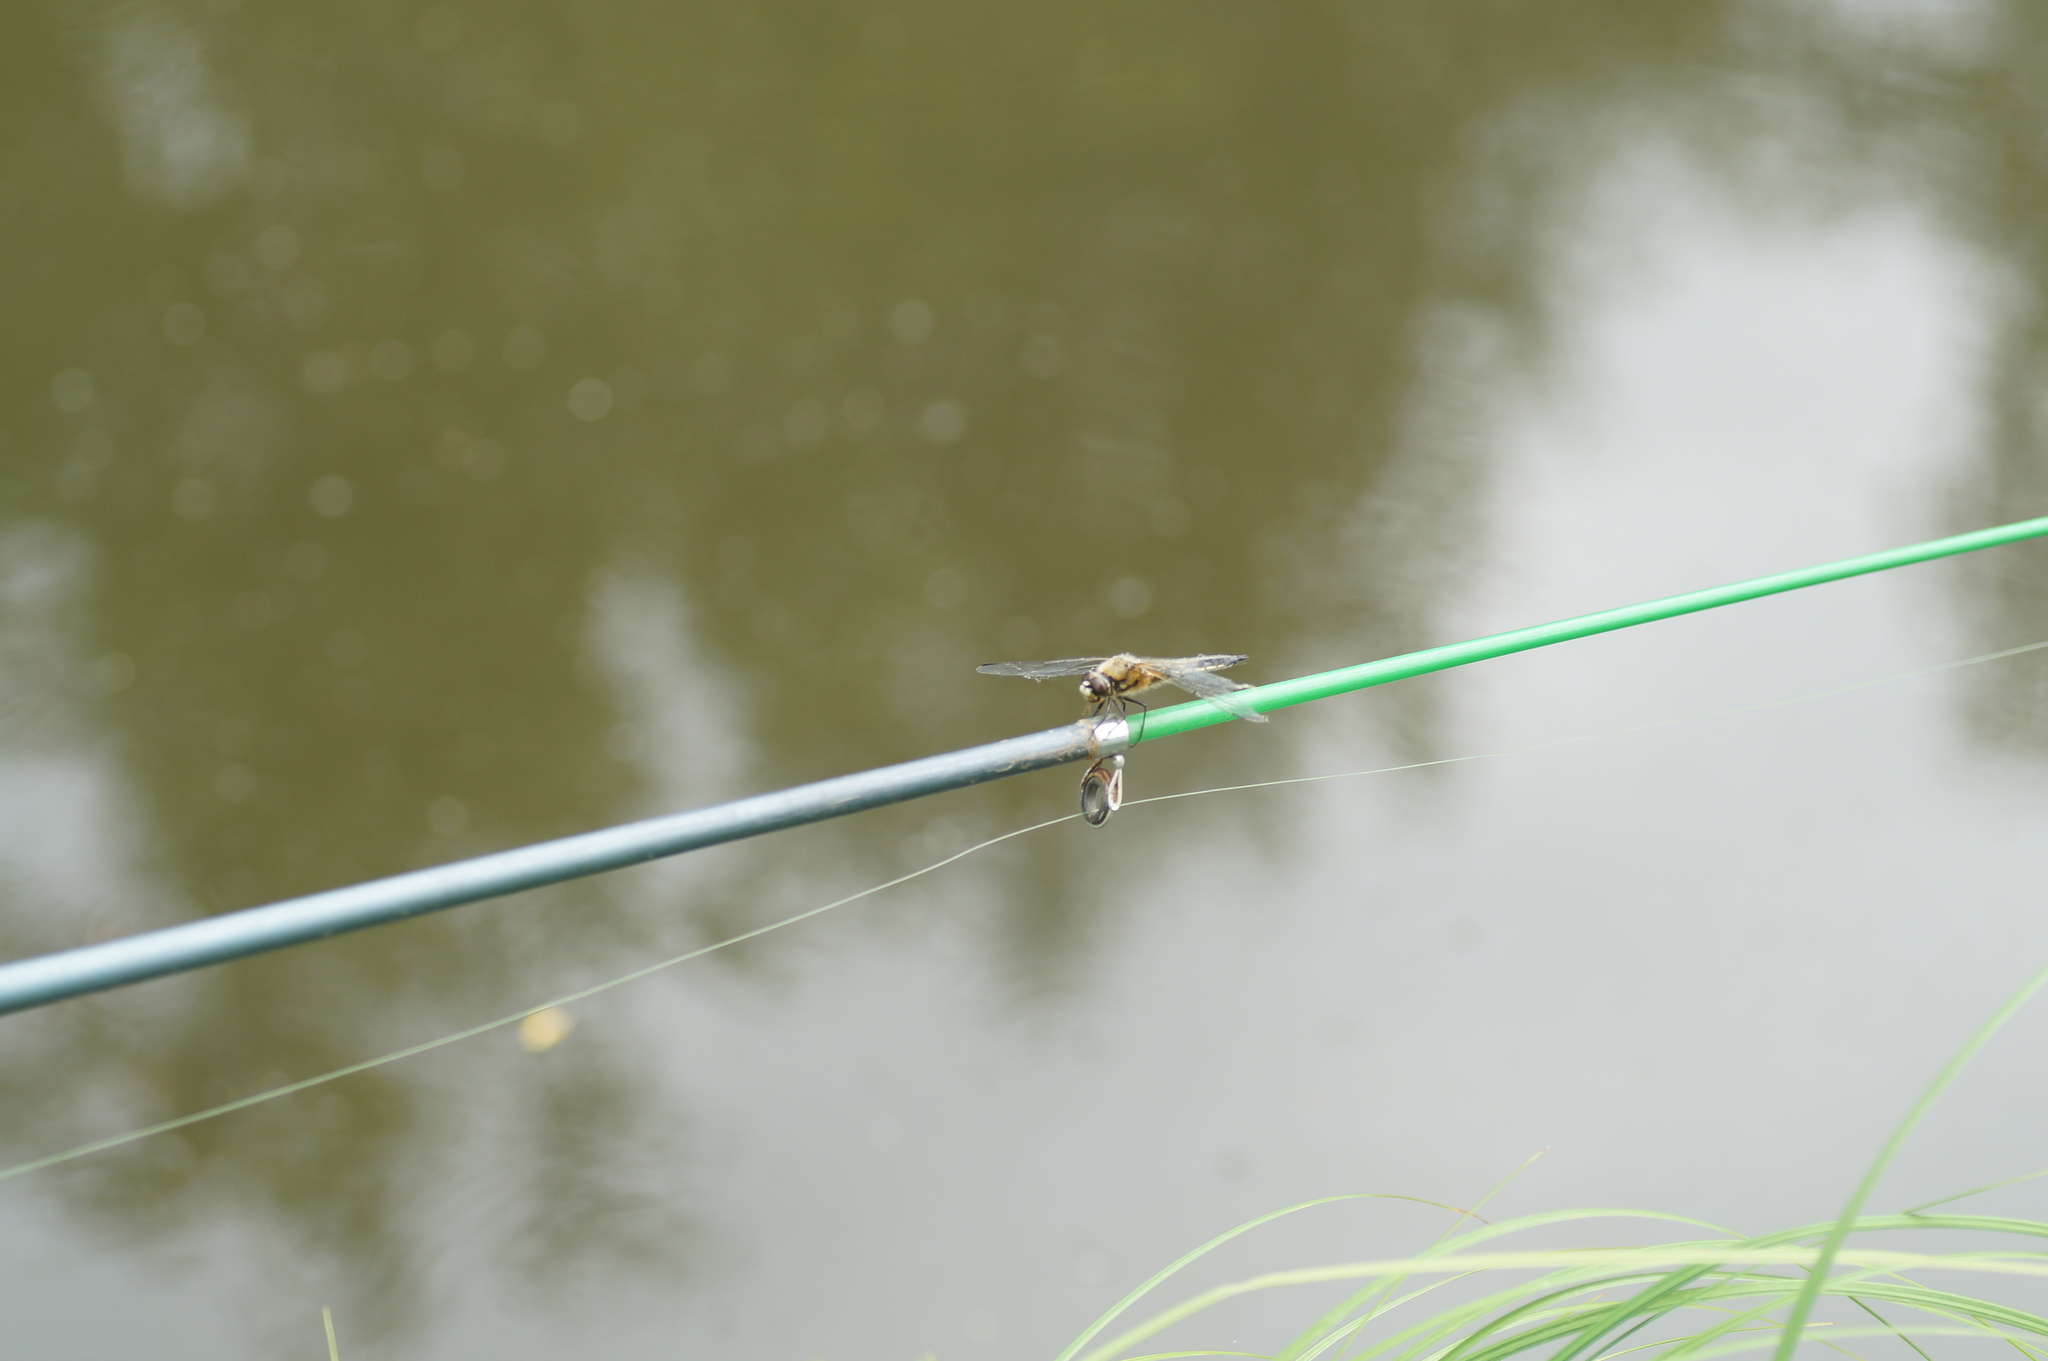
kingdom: Animalia
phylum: Arthropoda
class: Insecta
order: Odonata
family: Libellulidae
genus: Libellula
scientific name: Libellula quadrimaculata
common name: Four-spotted chaser
